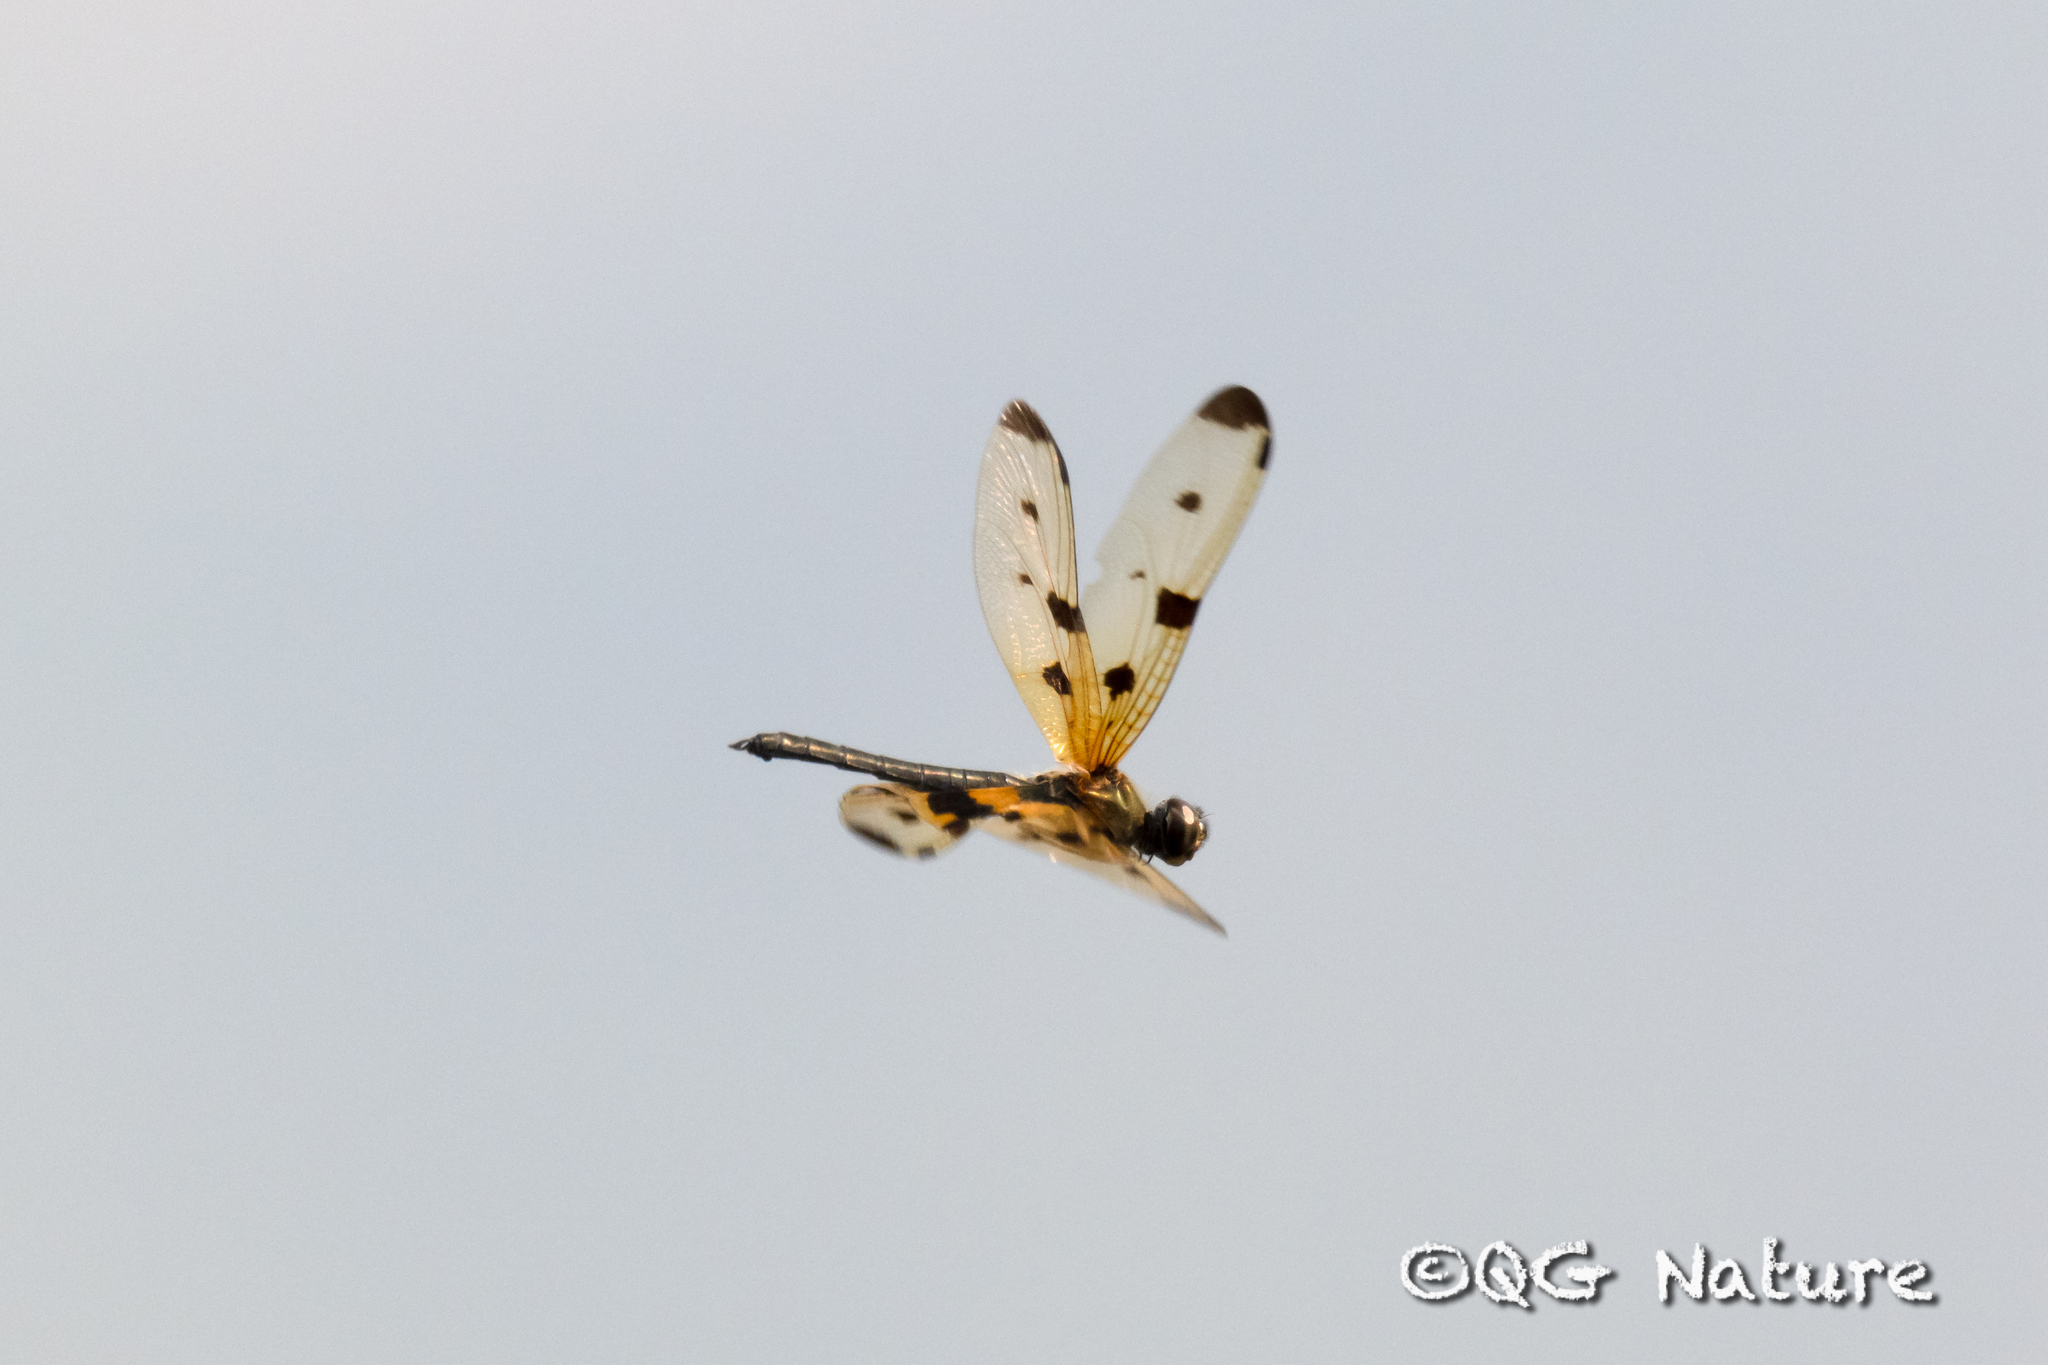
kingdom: Animalia
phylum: Arthropoda
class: Insecta
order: Odonata
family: Libellulidae
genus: Rhyothemis
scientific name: Rhyothemis variegata
